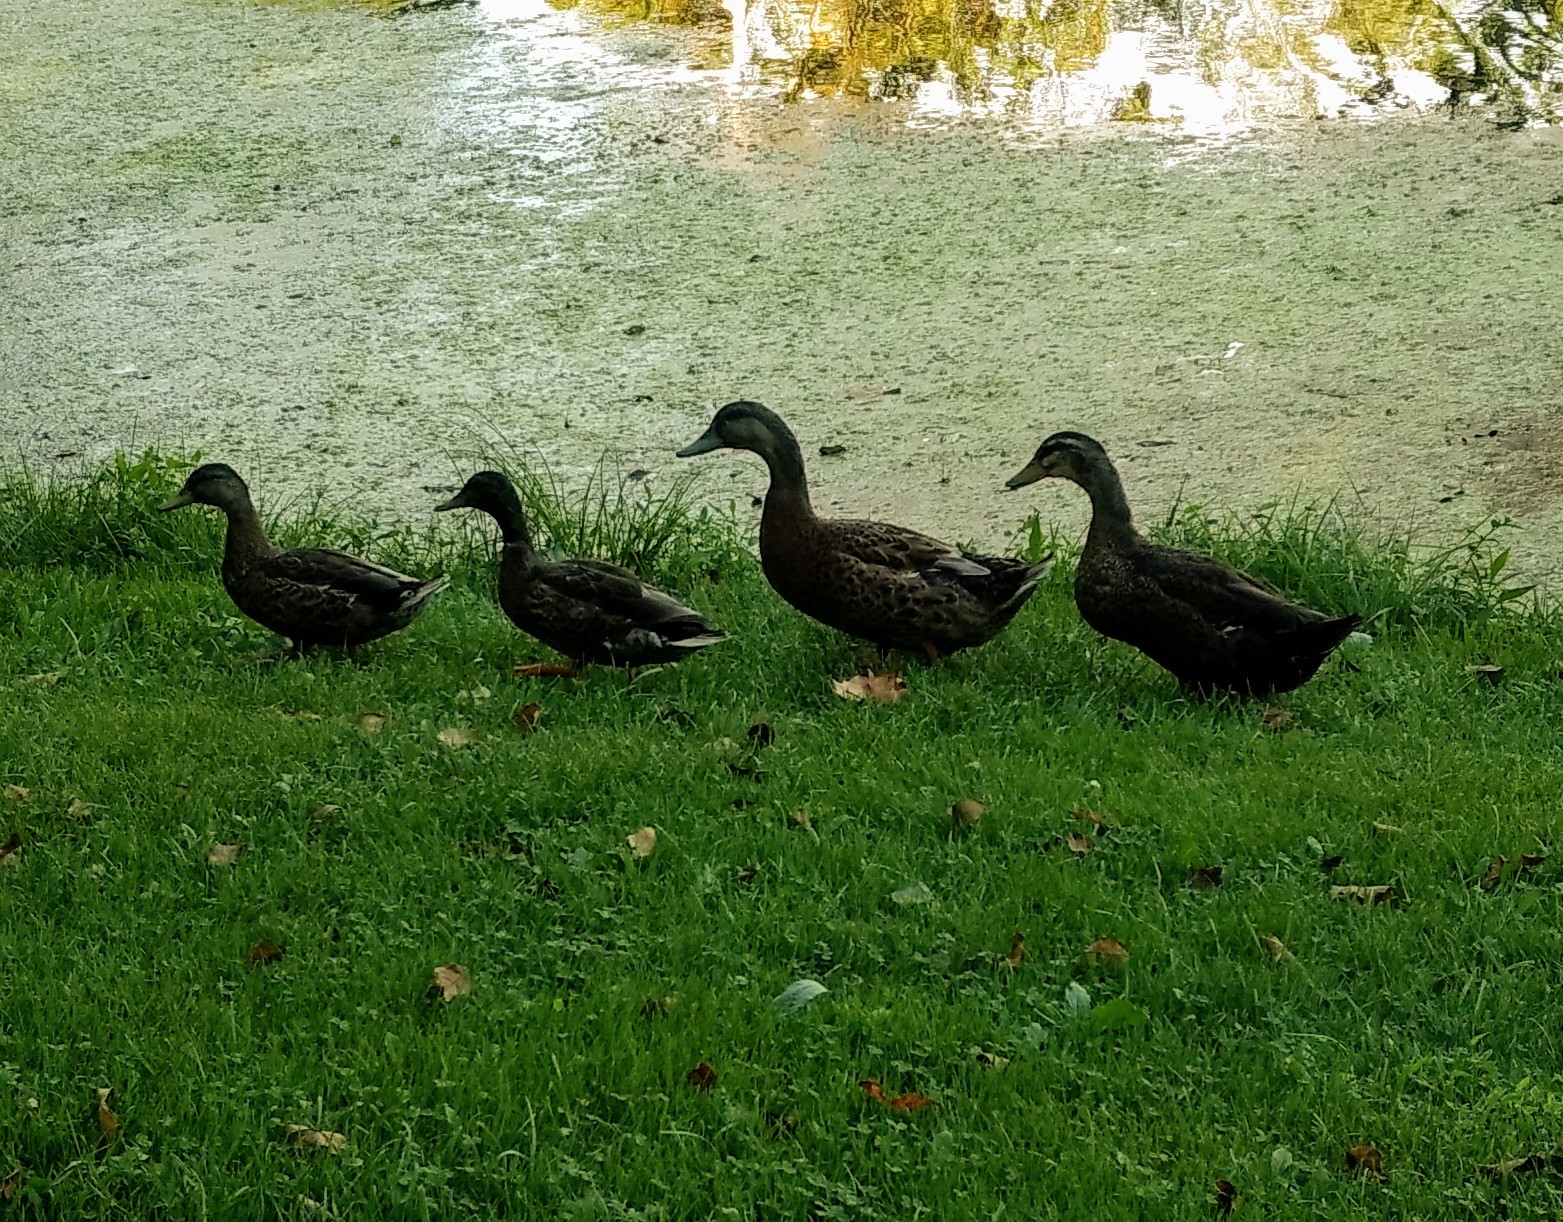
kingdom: Animalia
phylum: Chordata
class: Aves
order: Anseriformes
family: Anatidae
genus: Anas
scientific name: Anas platyrhynchos
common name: Mallard
